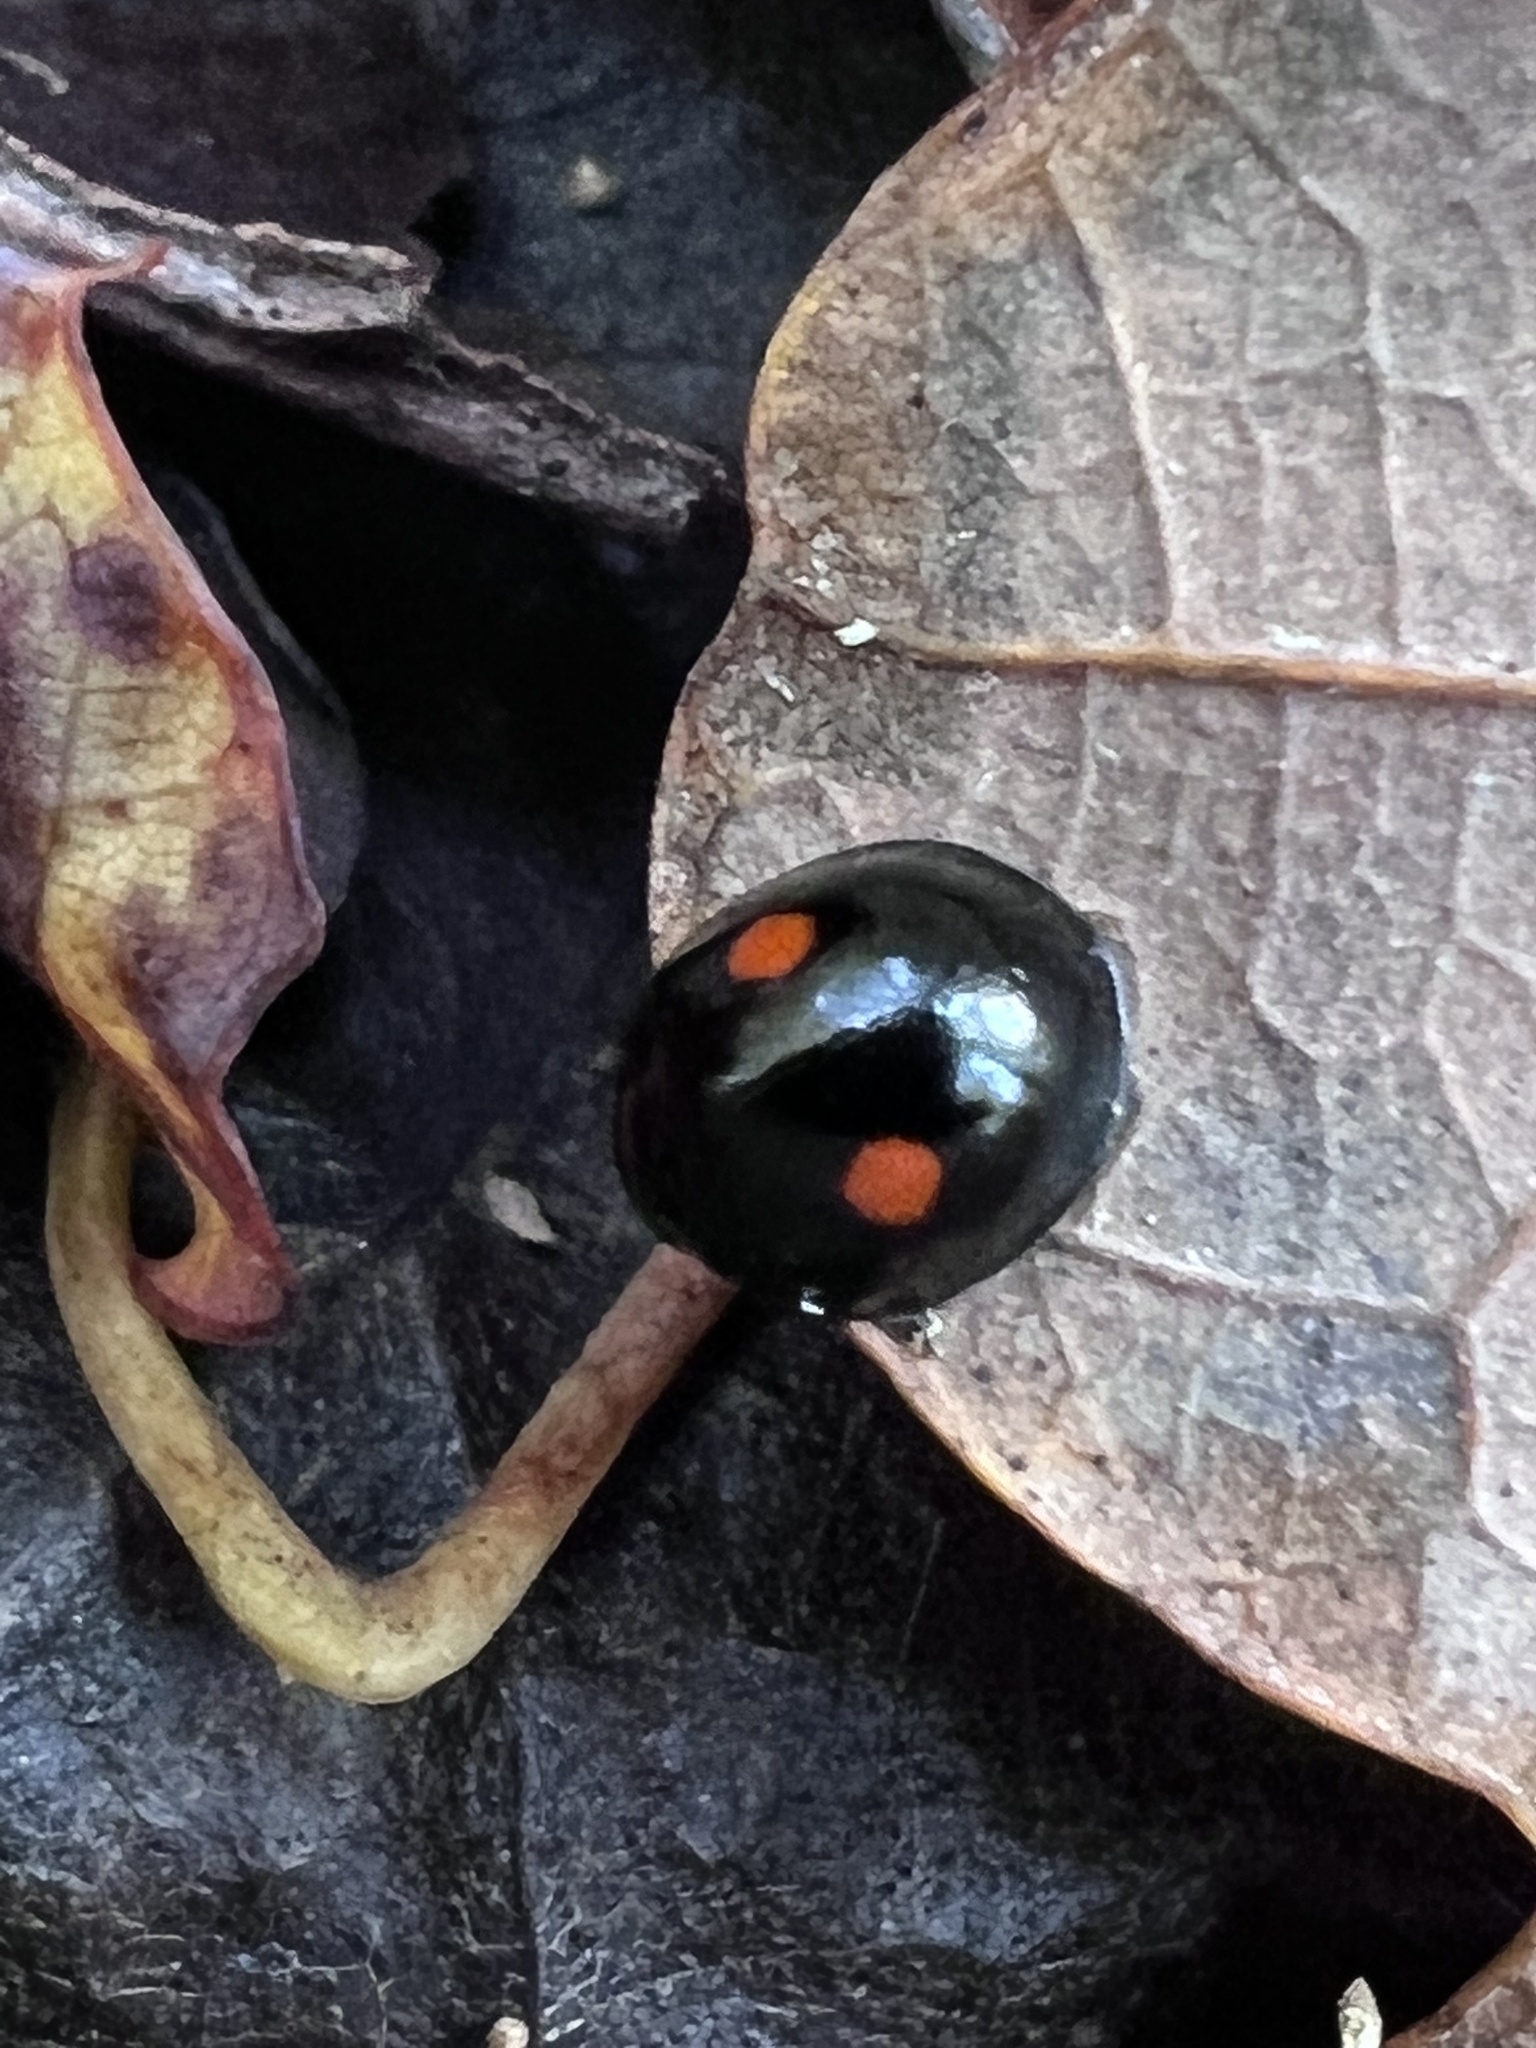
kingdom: Animalia
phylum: Arthropoda
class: Insecta
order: Coleoptera
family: Coccinellidae
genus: Chilocorus
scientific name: Chilocorus stigma
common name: Twicestabbed lady beetle
